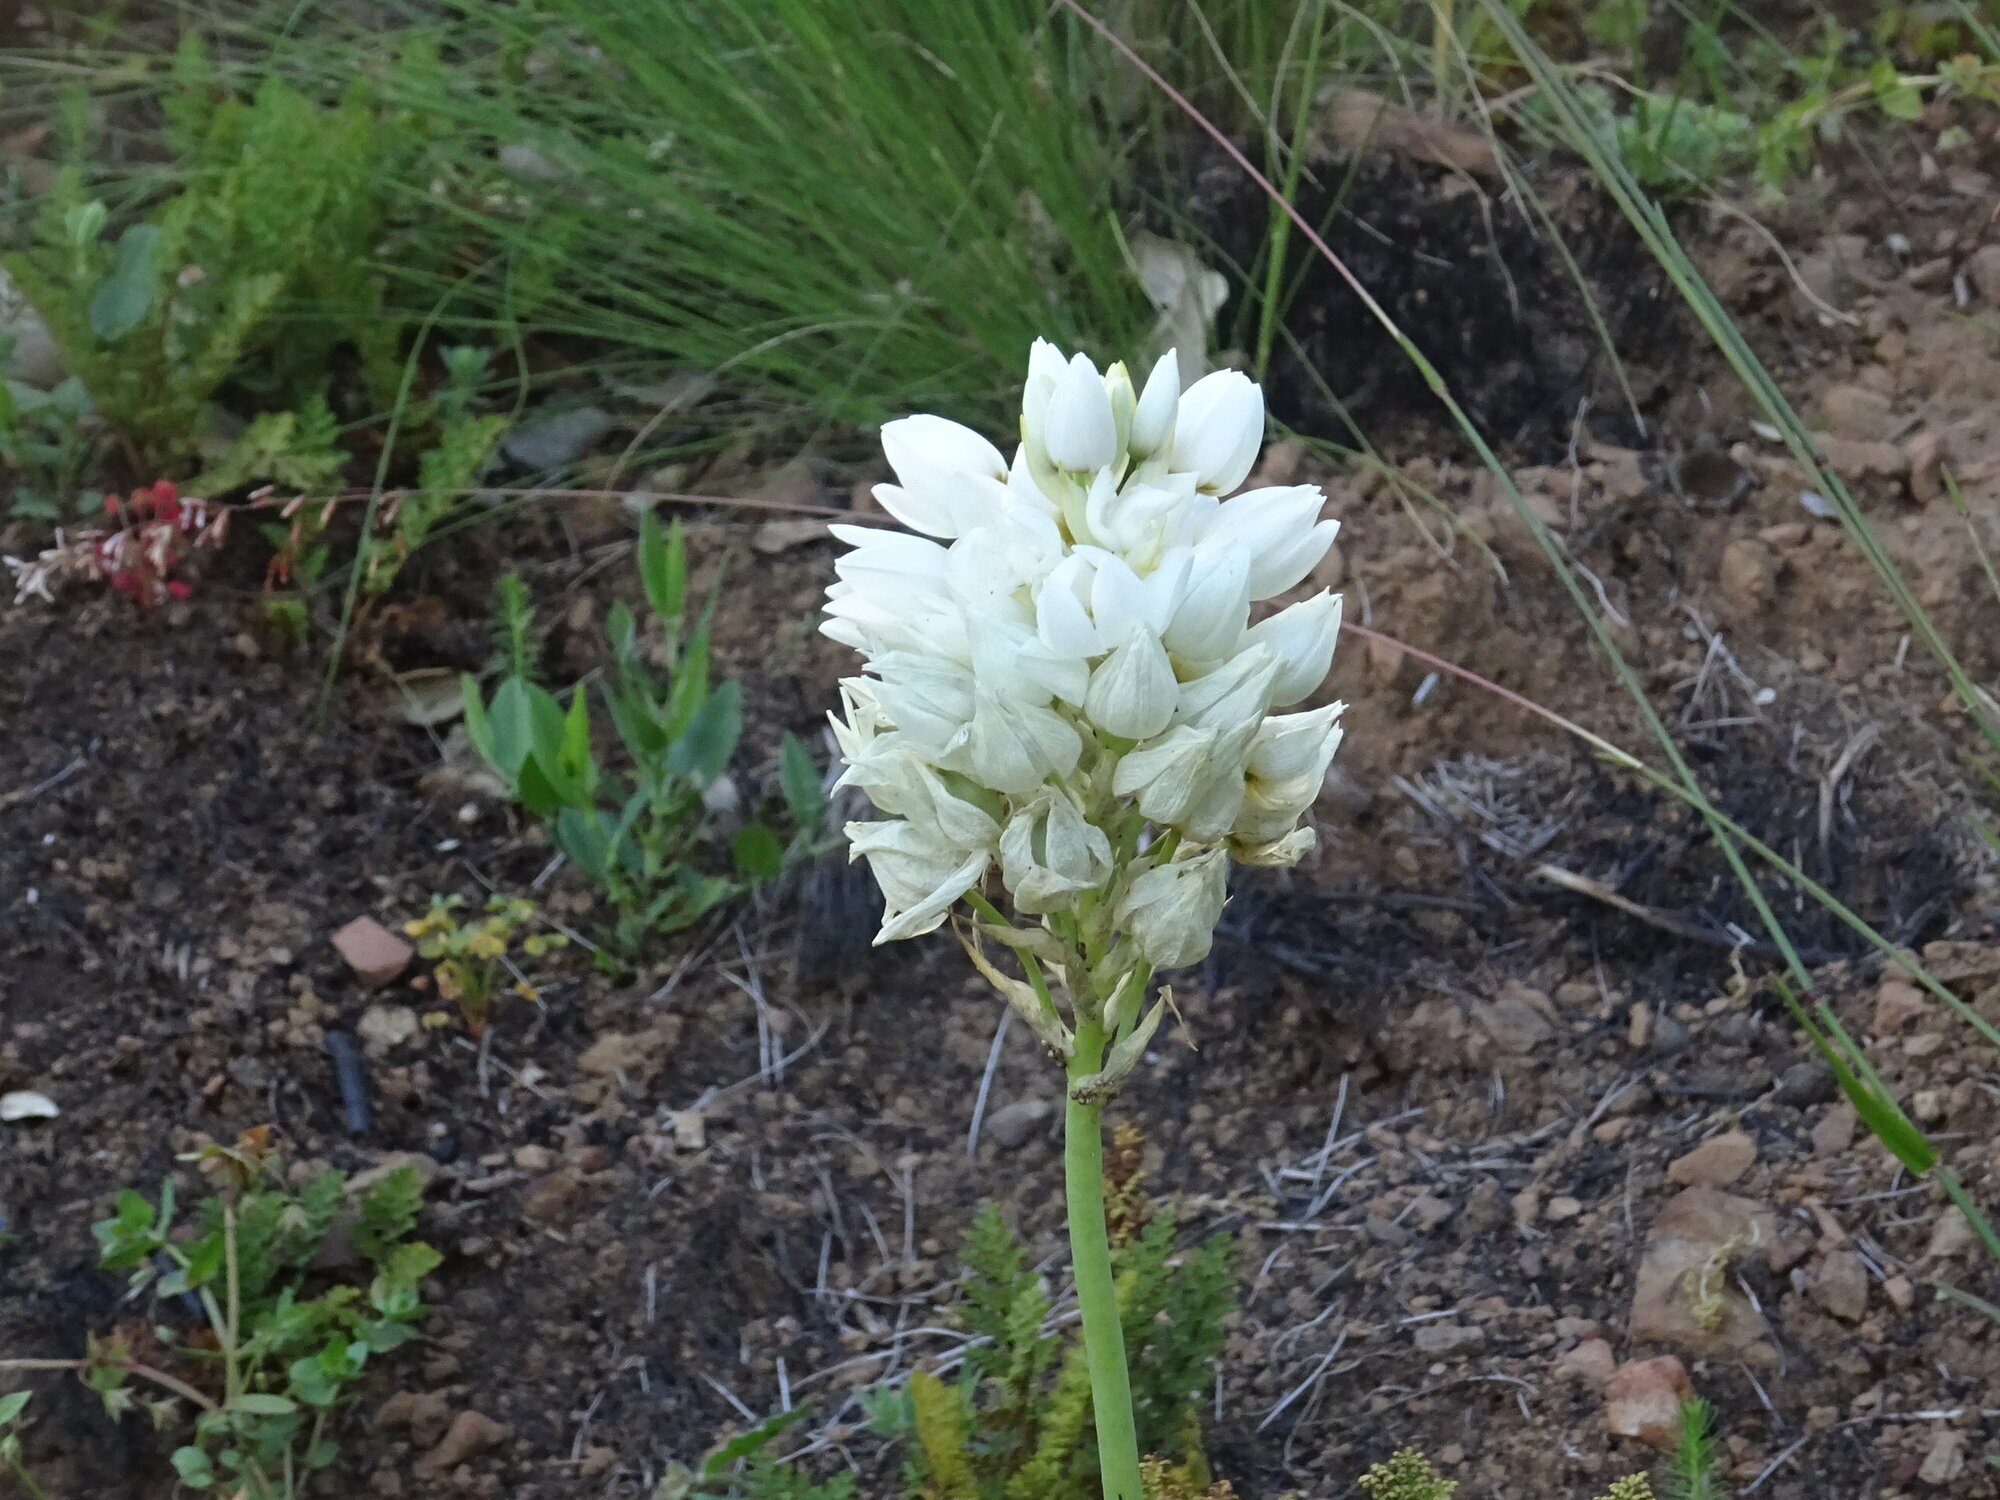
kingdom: Plantae
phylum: Tracheophyta
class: Liliopsida
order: Asparagales
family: Asparagaceae
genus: Ornithogalum
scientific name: Ornithogalum thyrsoides
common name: Chincherinchee
